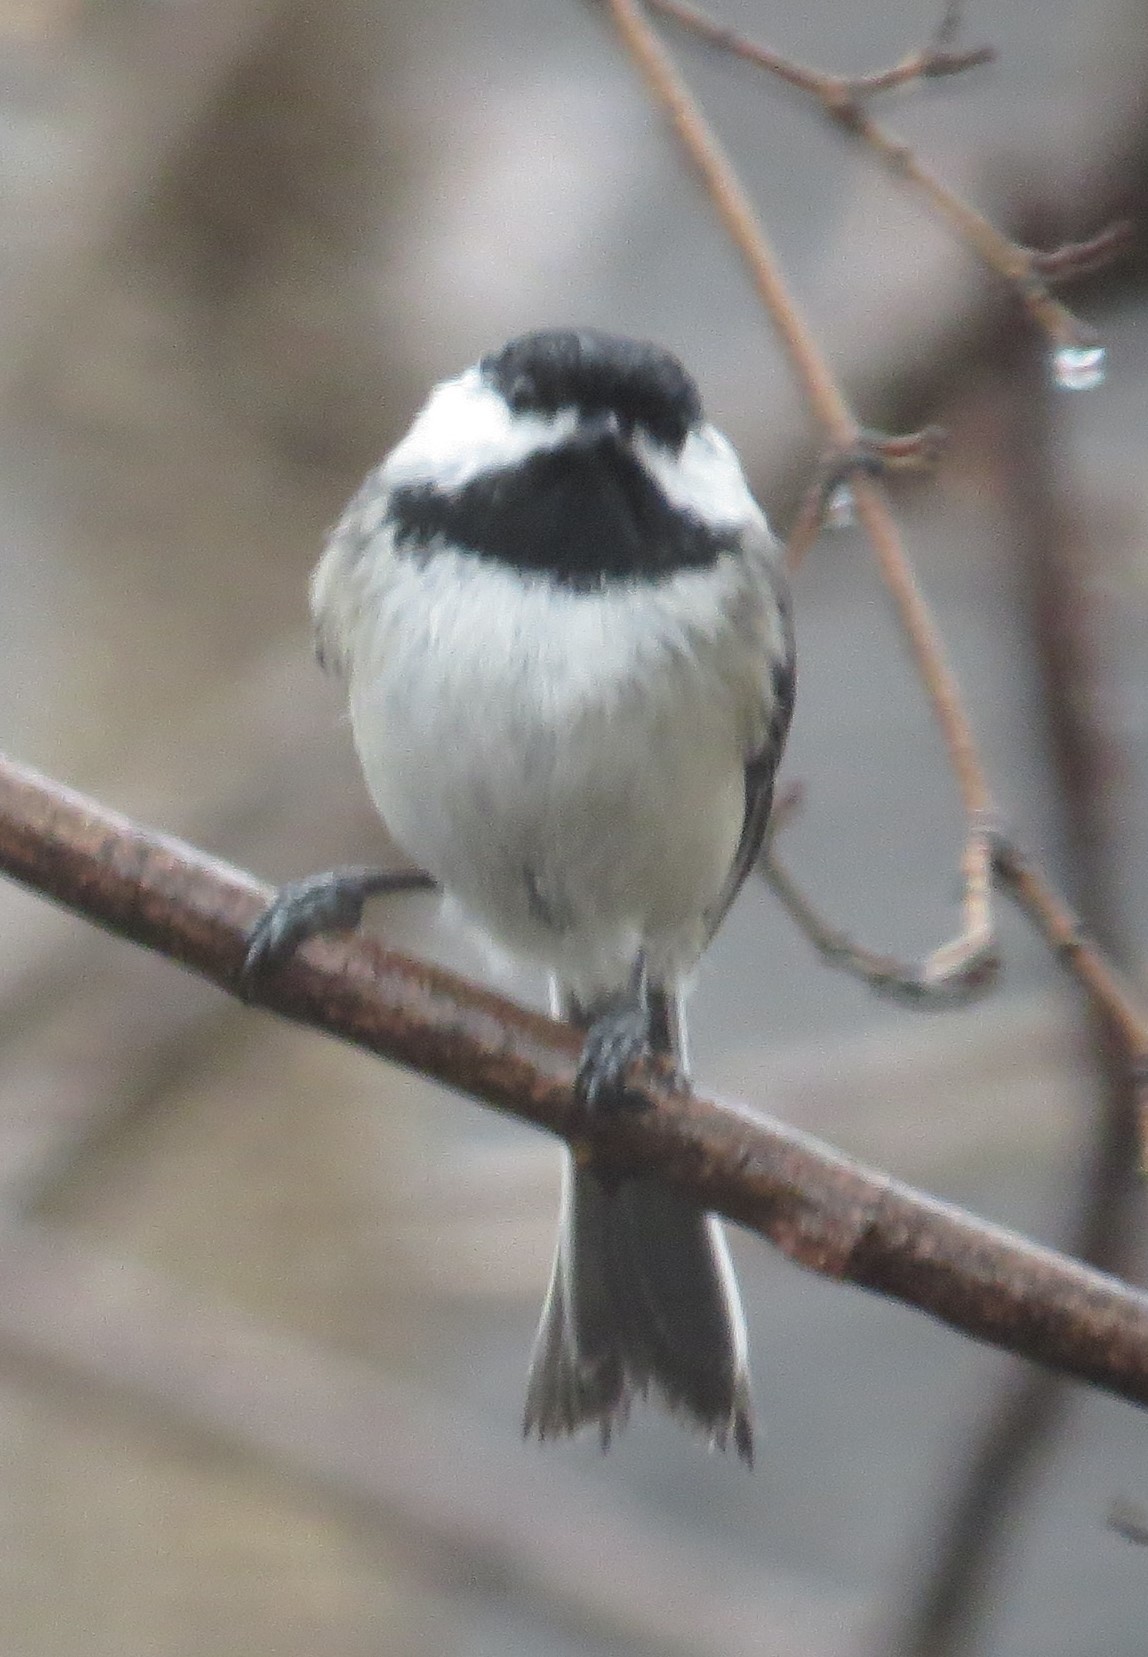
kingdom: Animalia
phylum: Chordata
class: Aves
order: Passeriformes
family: Paridae
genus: Poecile
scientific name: Poecile atricapillus
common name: Black-capped chickadee
